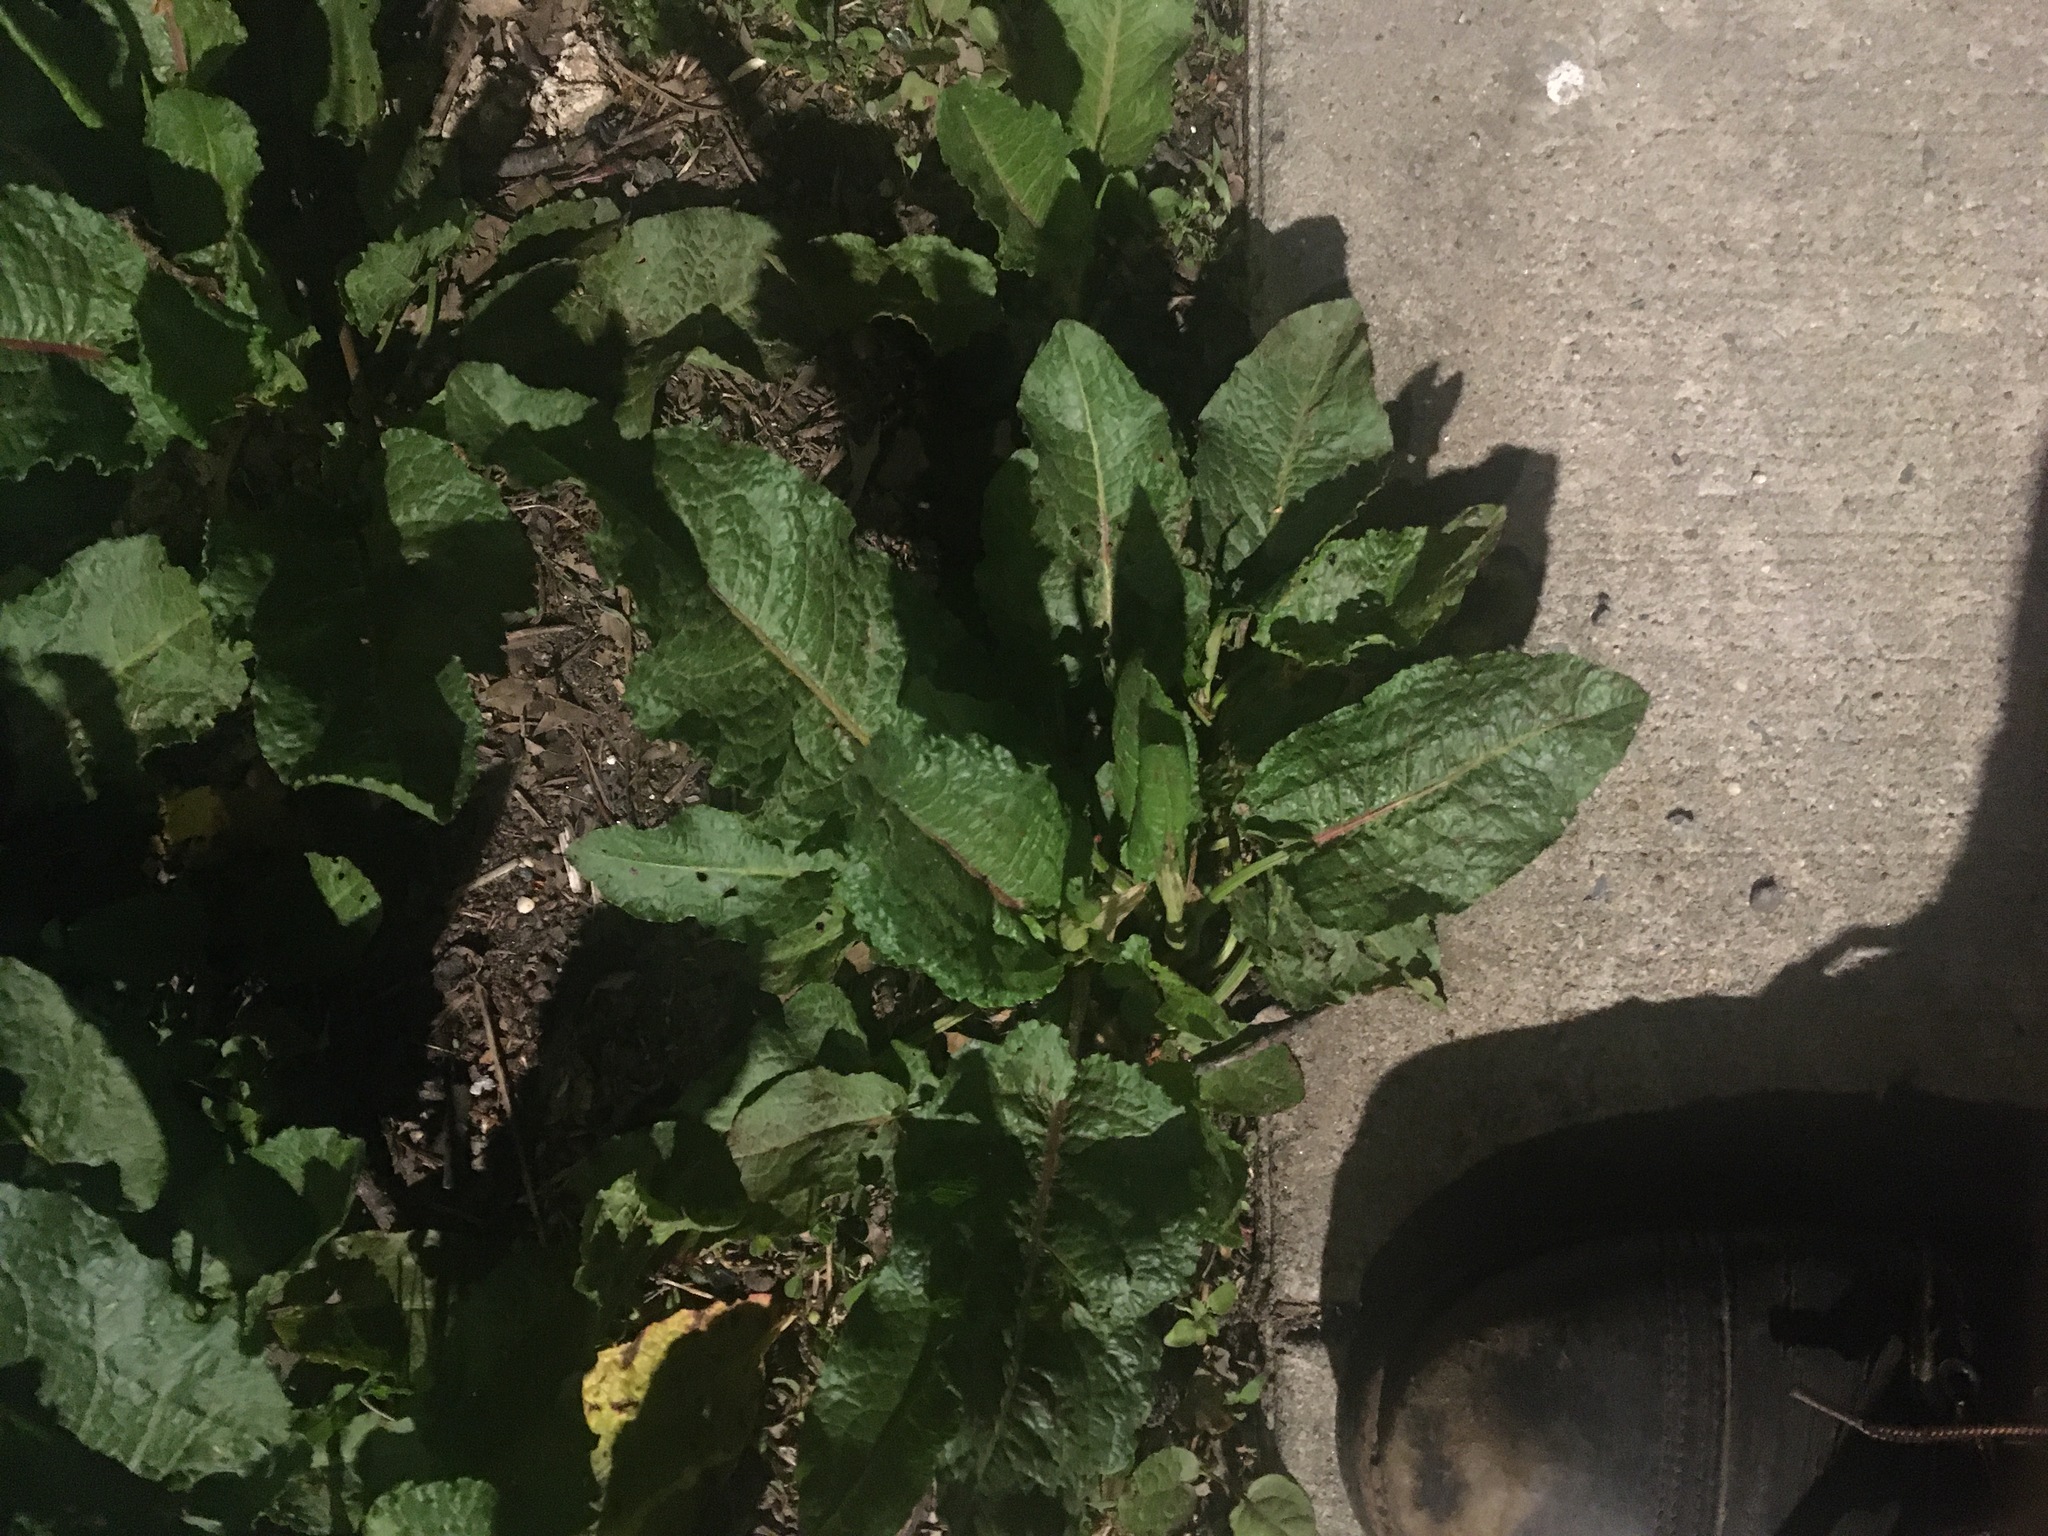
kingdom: Plantae
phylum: Tracheophyta
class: Magnoliopsida
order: Caryophyllales
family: Polygonaceae
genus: Rumex
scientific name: Rumex obtusifolius
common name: Bitter dock
